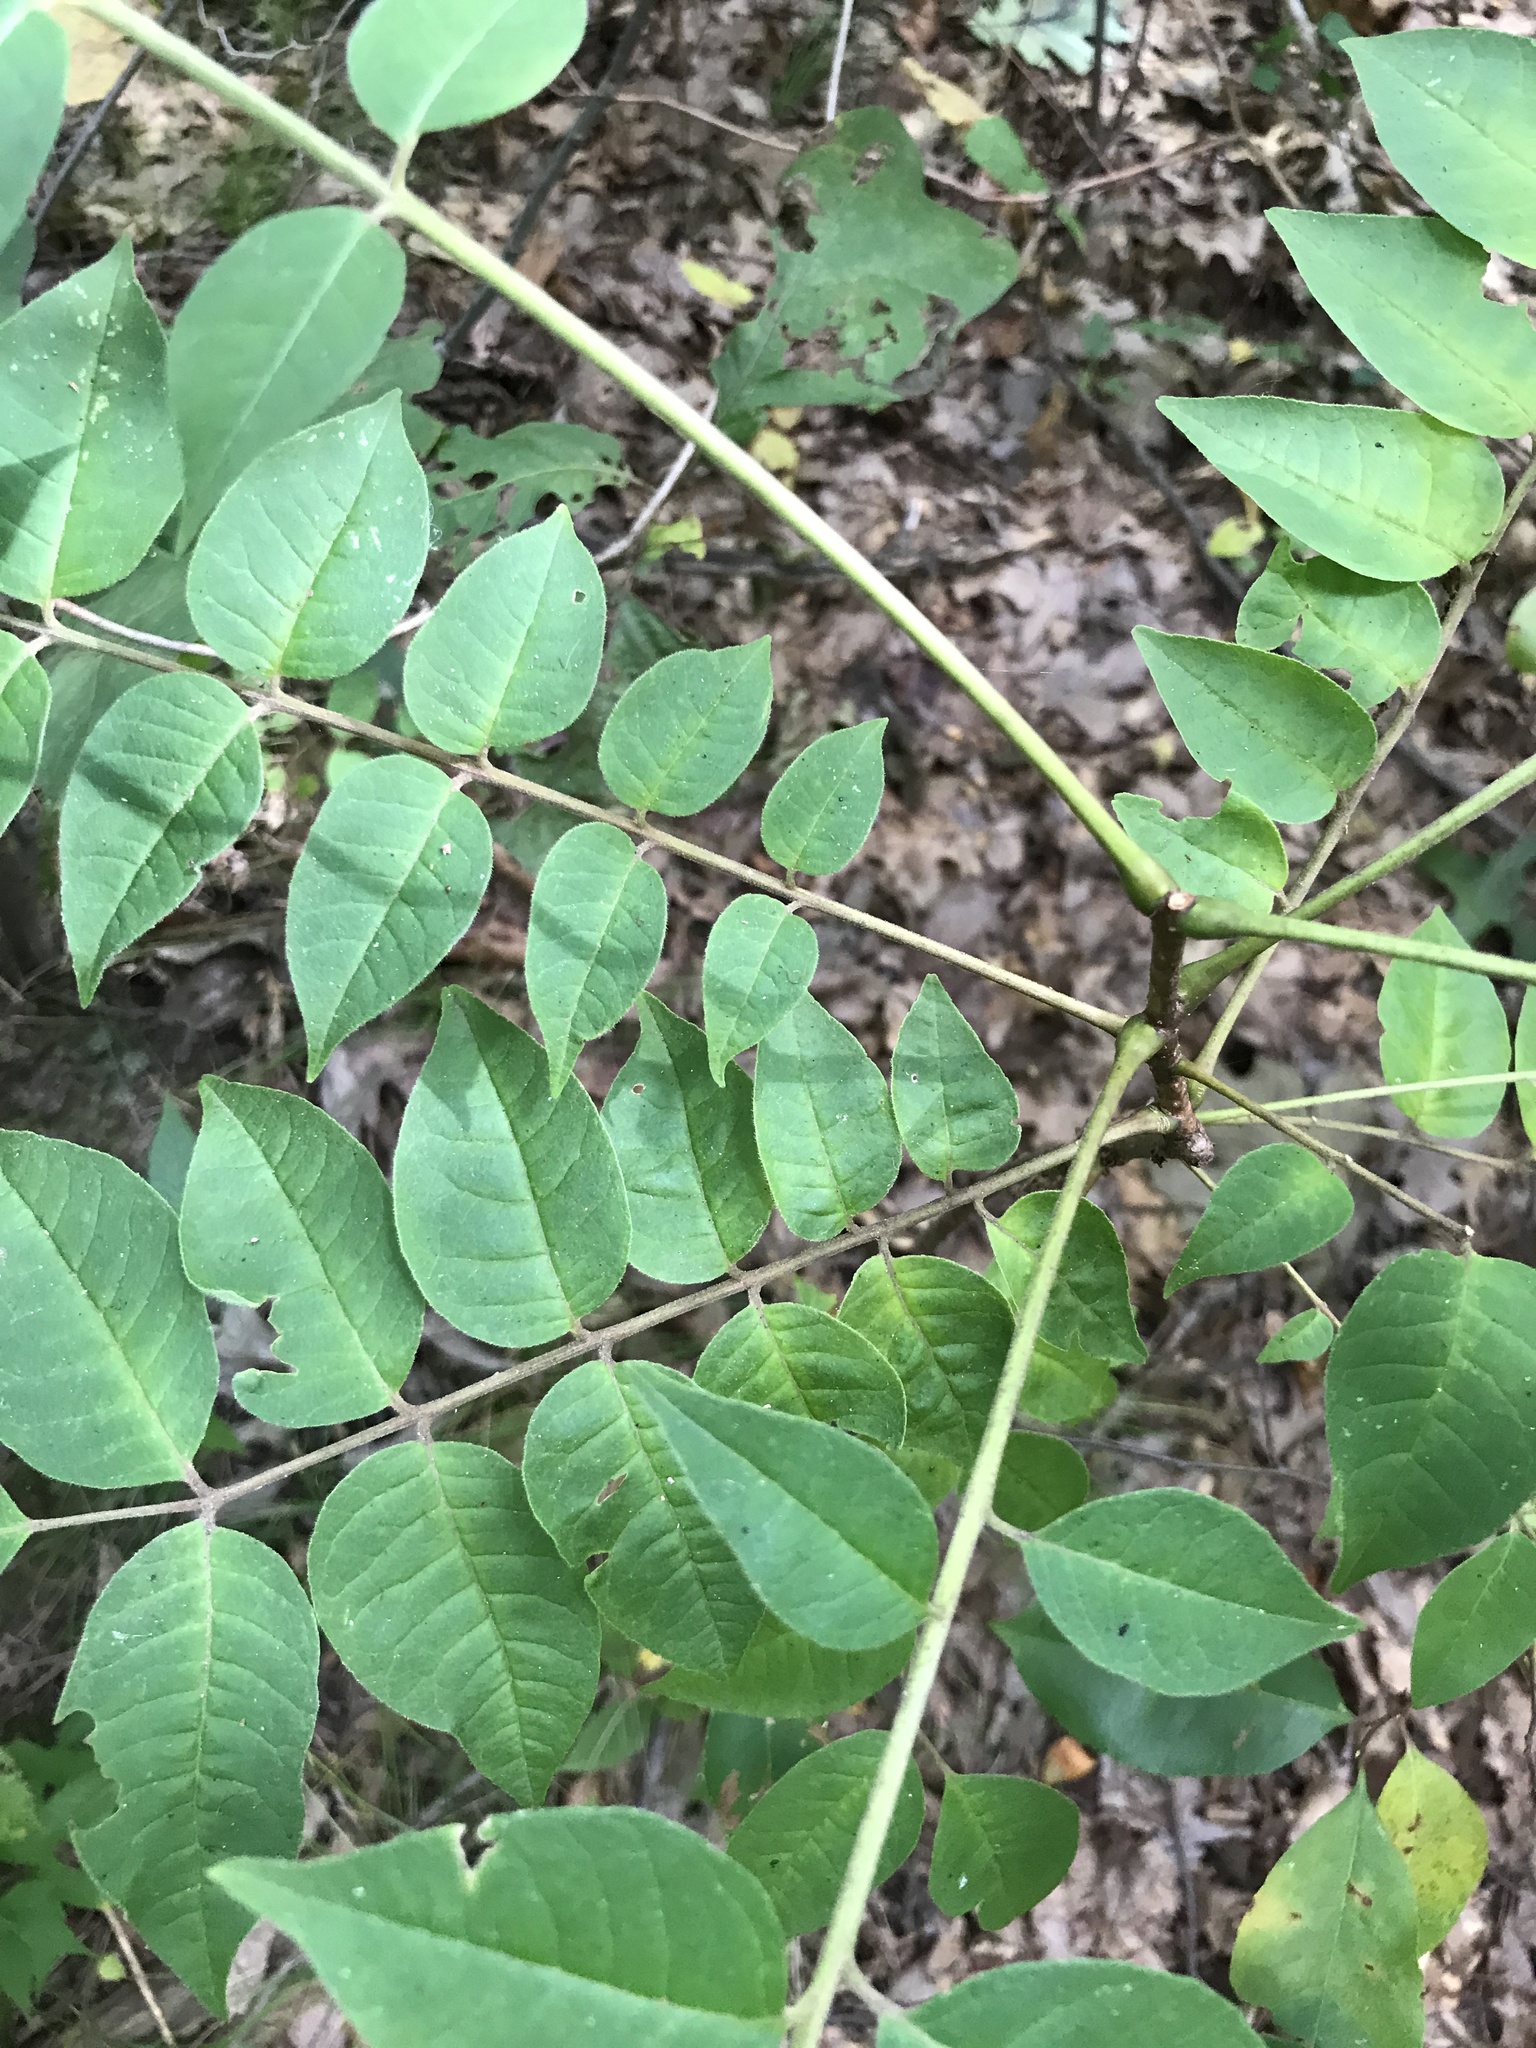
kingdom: Plantae
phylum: Tracheophyta
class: Magnoliopsida
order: Sapindales
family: Rutaceae
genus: Phellodendron
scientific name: Phellodendron amurense
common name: Amur corktree
